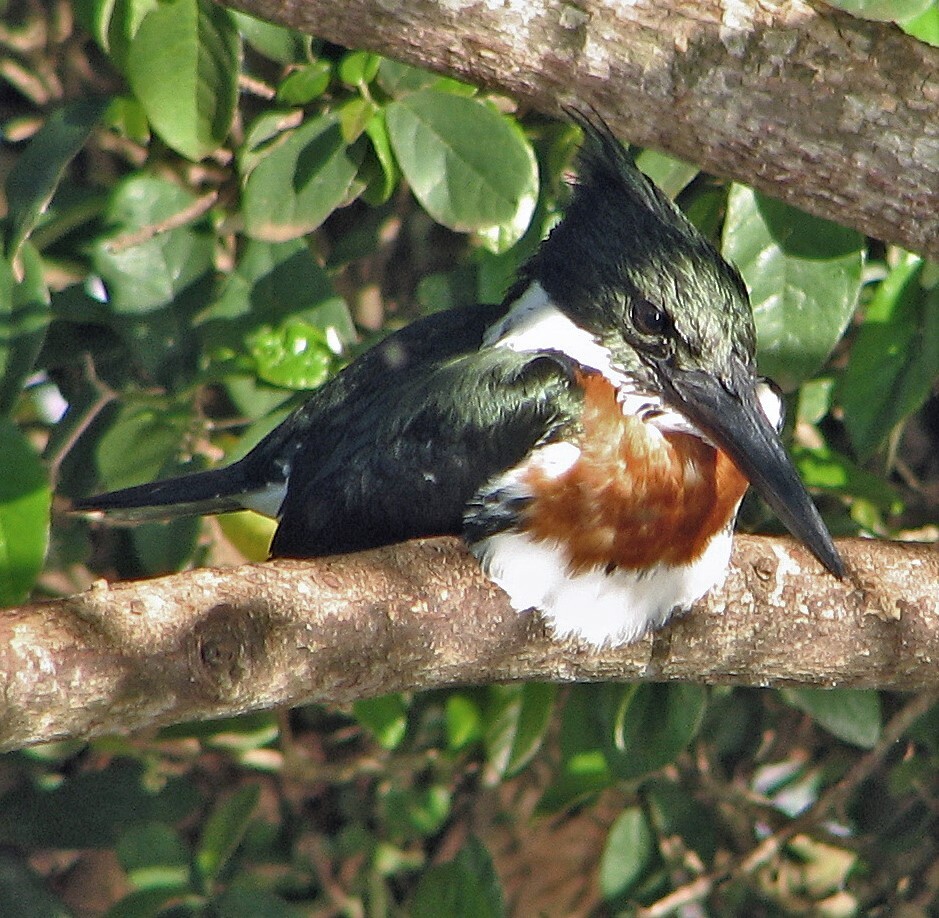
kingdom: Animalia
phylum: Chordata
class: Aves
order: Coraciiformes
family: Alcedinidae
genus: Chloroceryle
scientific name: Chloroceryle amazona
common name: Amazon kingfisher
